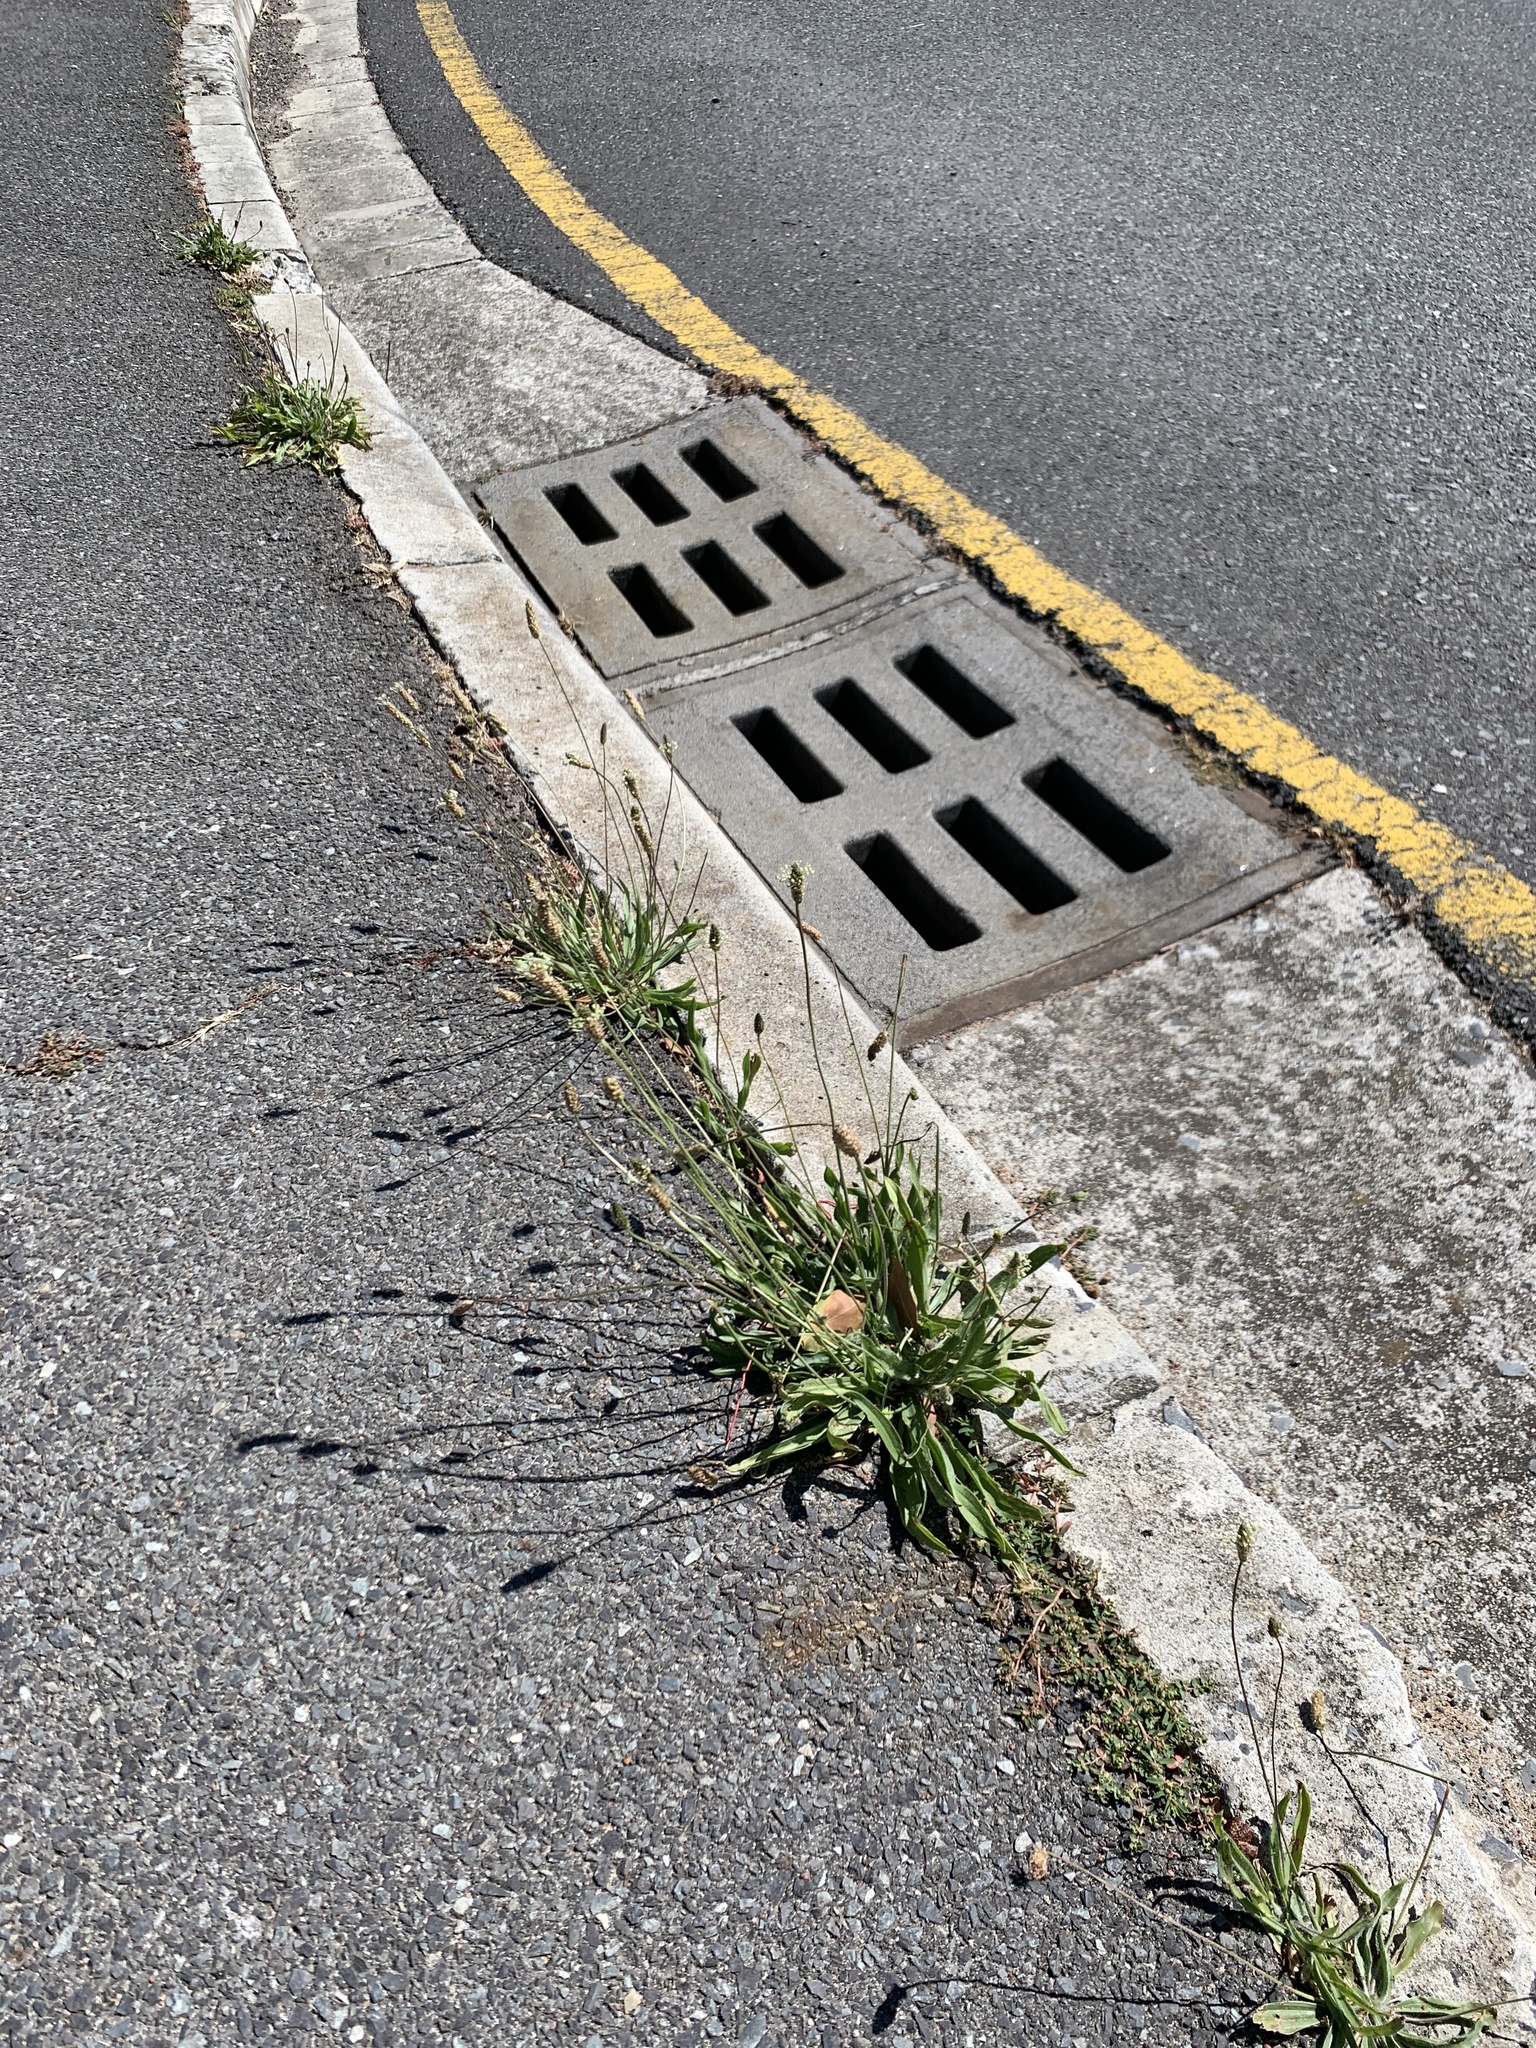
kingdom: Plantae
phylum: Tracheophyta
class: Magnoliopsida
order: Lamiales
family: Plantaginaceae
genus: Plantago
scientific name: Plantago lanceolata
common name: Ribwort plantain
